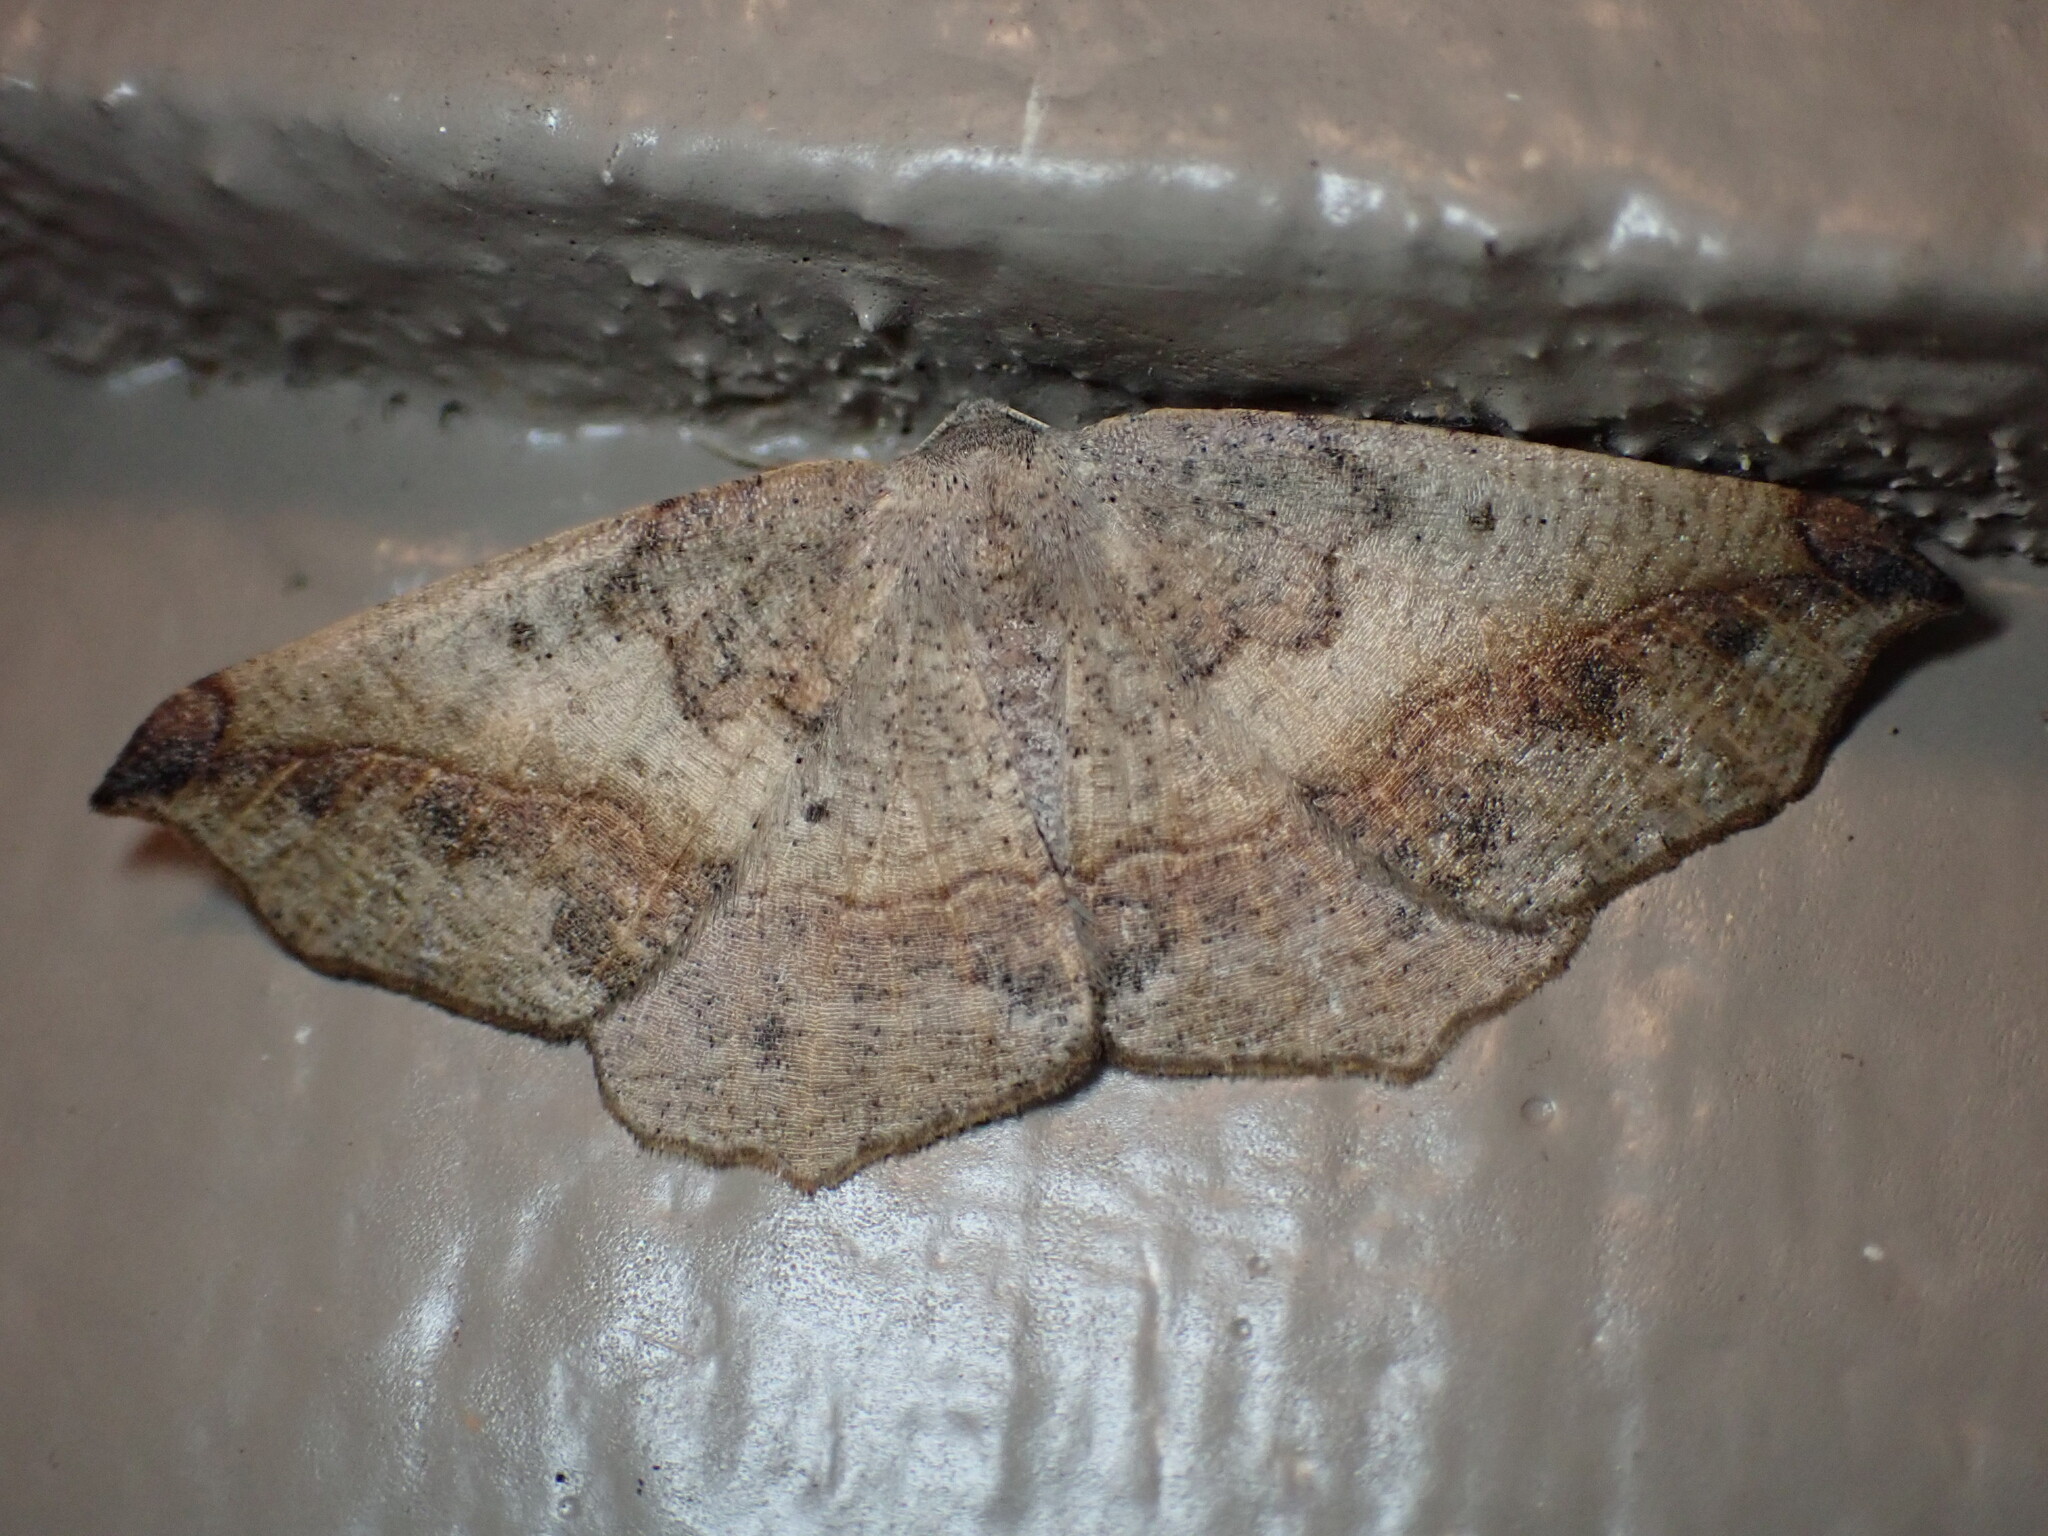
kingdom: Animalia
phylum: Arthropoda
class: Insecta
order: Lepidoptera
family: Geometridae
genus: Prochoerodes
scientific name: Prochoerodes forficaria
